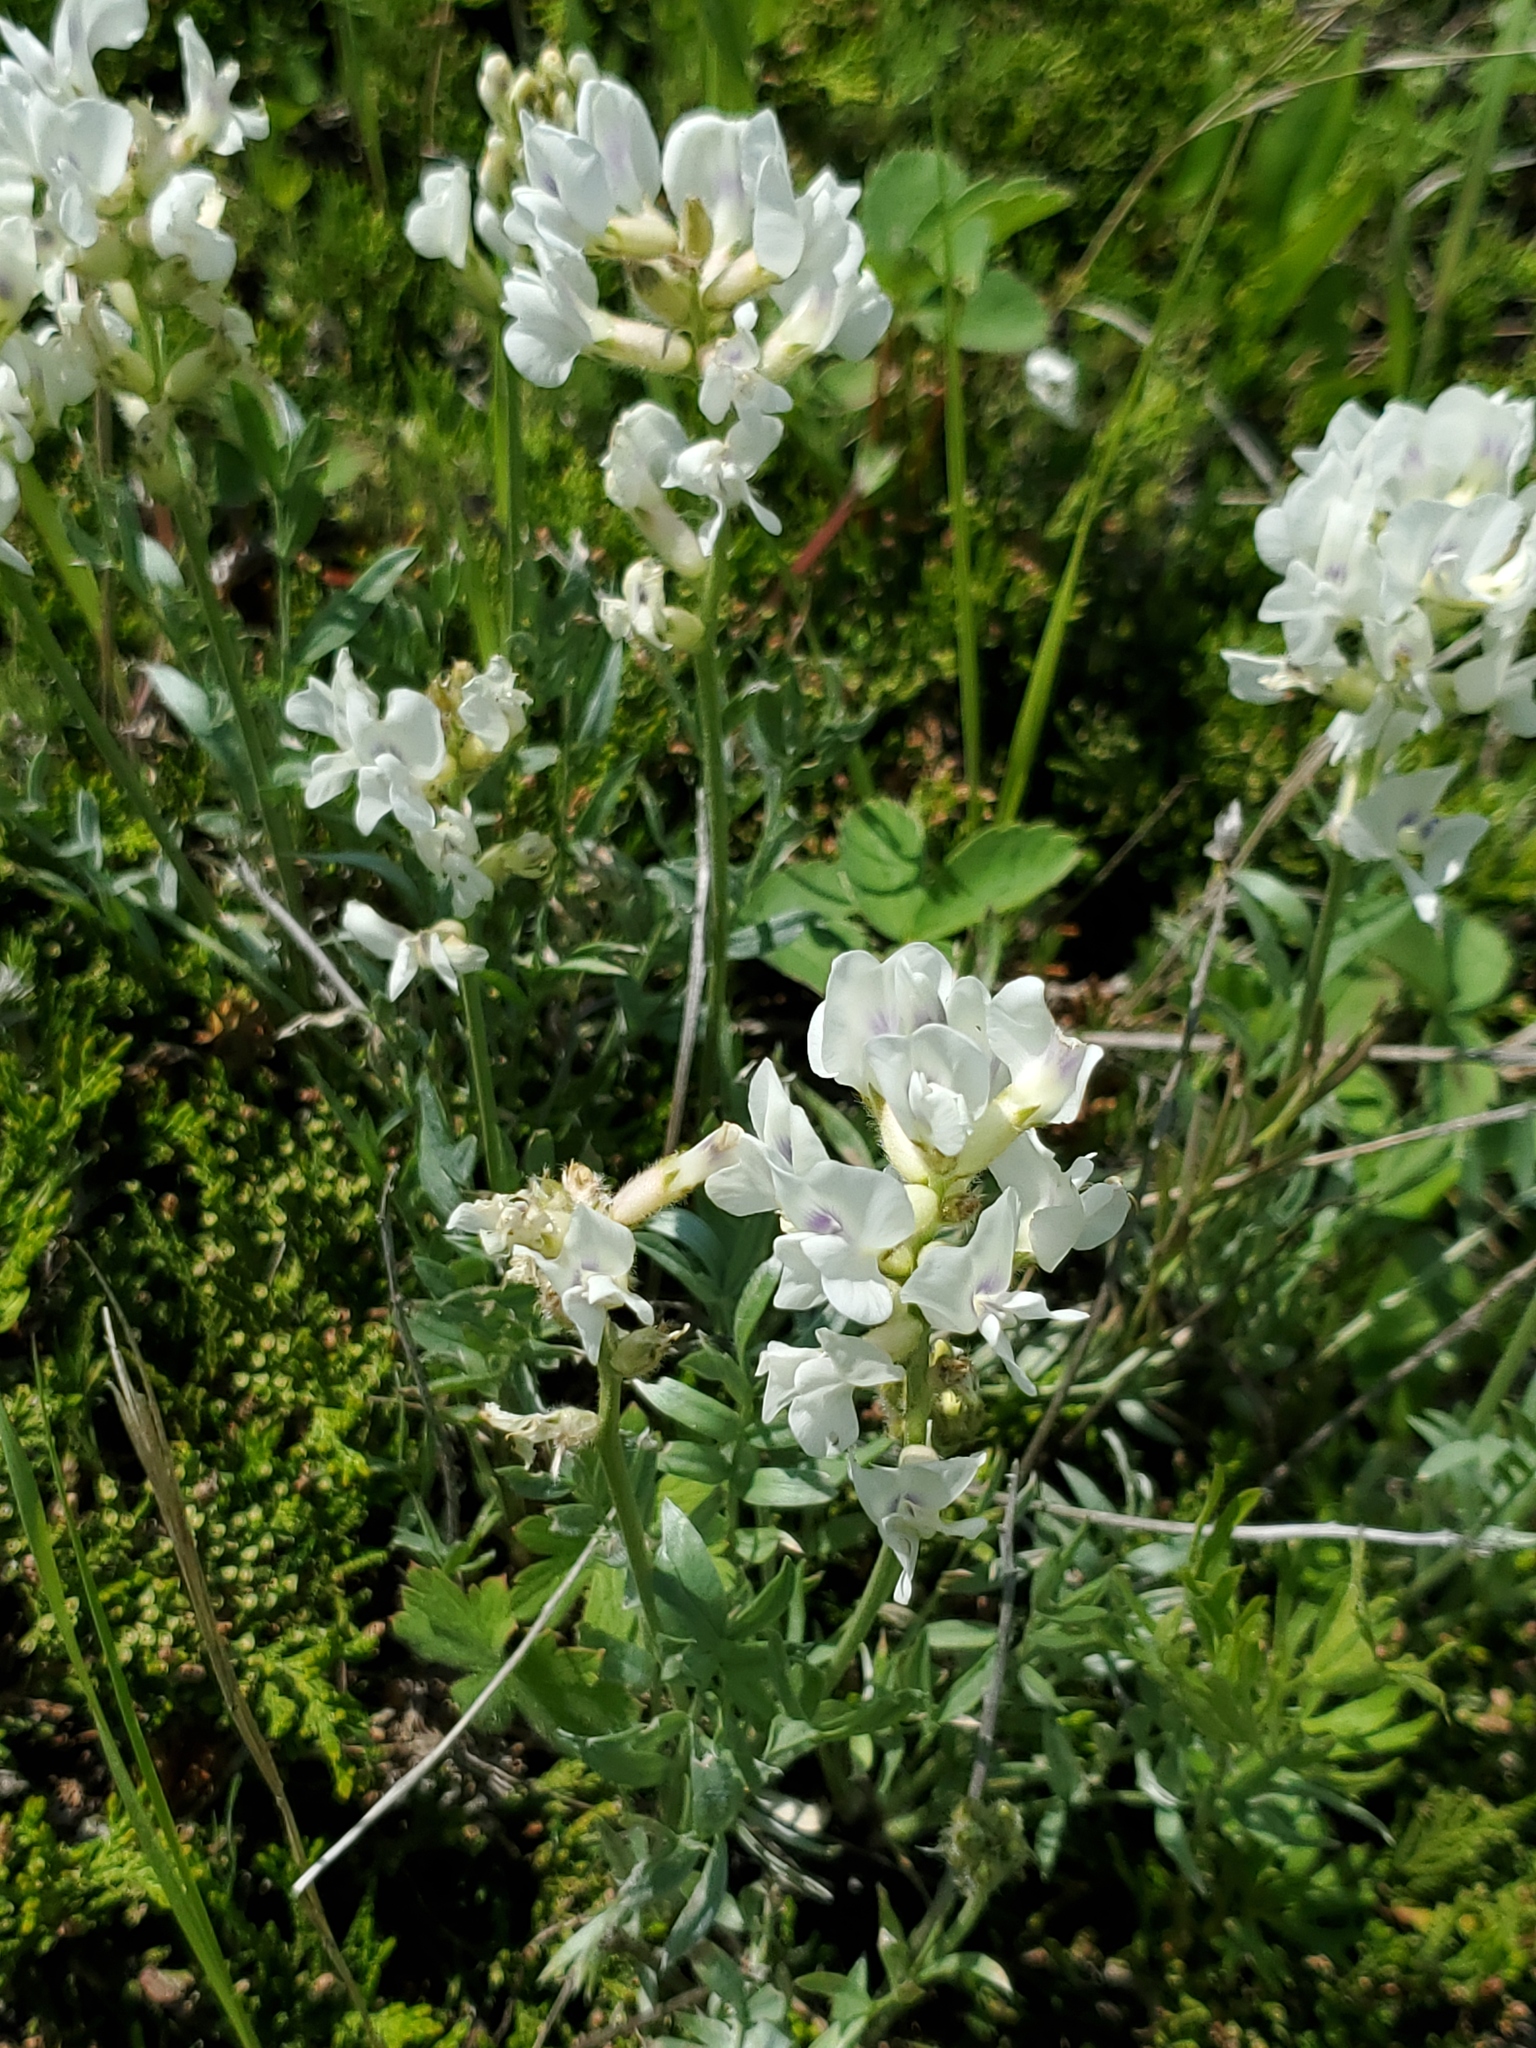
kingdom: Plantae
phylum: Tracheophyta
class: Magnoliopsida
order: Fabales
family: Fabaceae
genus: Oxytropis
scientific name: Oxytropis sericea
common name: Silky locoweed
